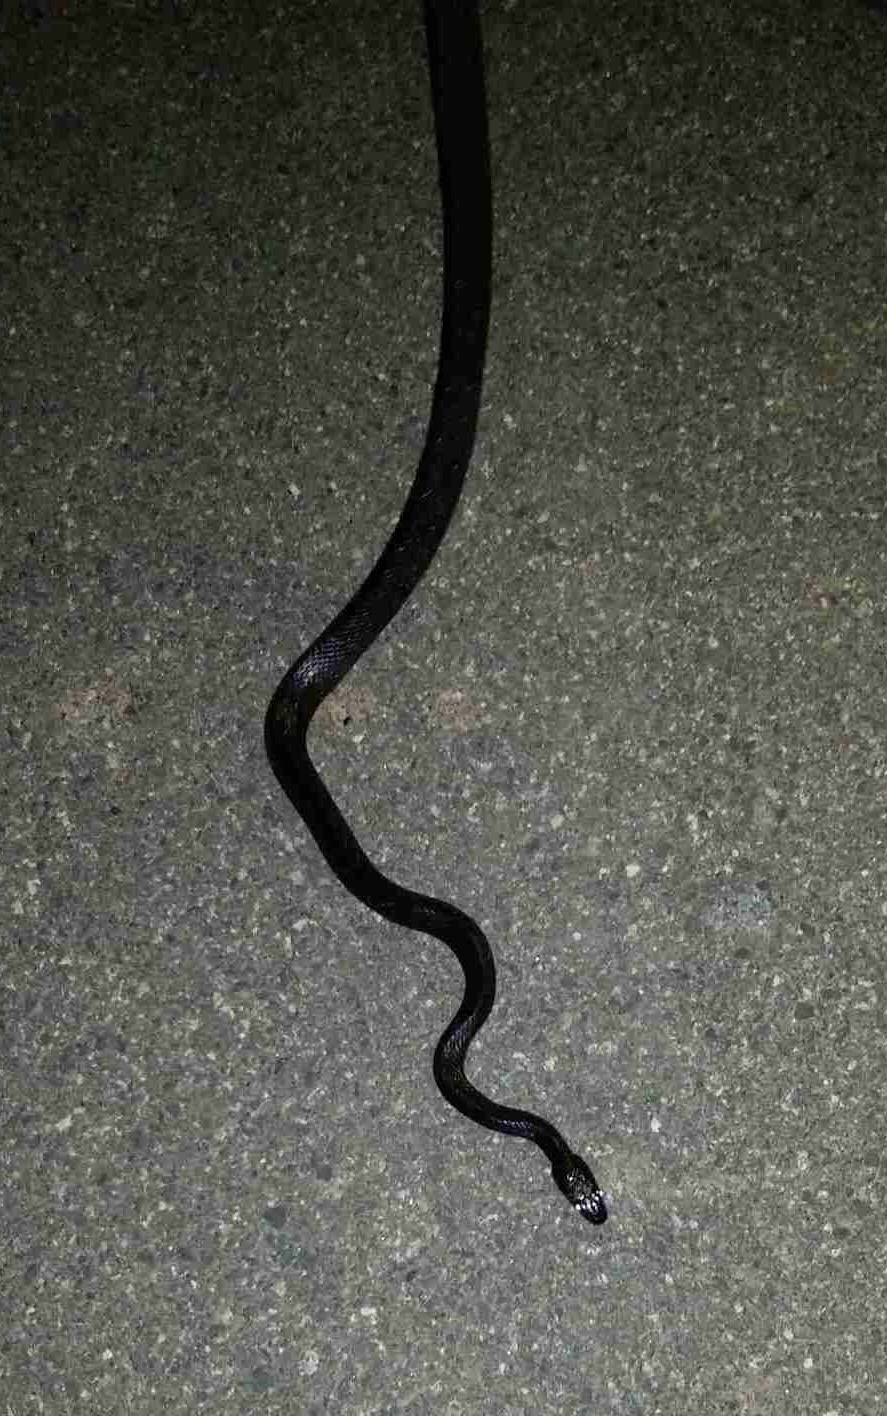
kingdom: Animalia
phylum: Chordata
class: Squamata
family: Colubridae
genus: Pantherophis
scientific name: Pantherophis alleghaniensis
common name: Eastern rat snake
